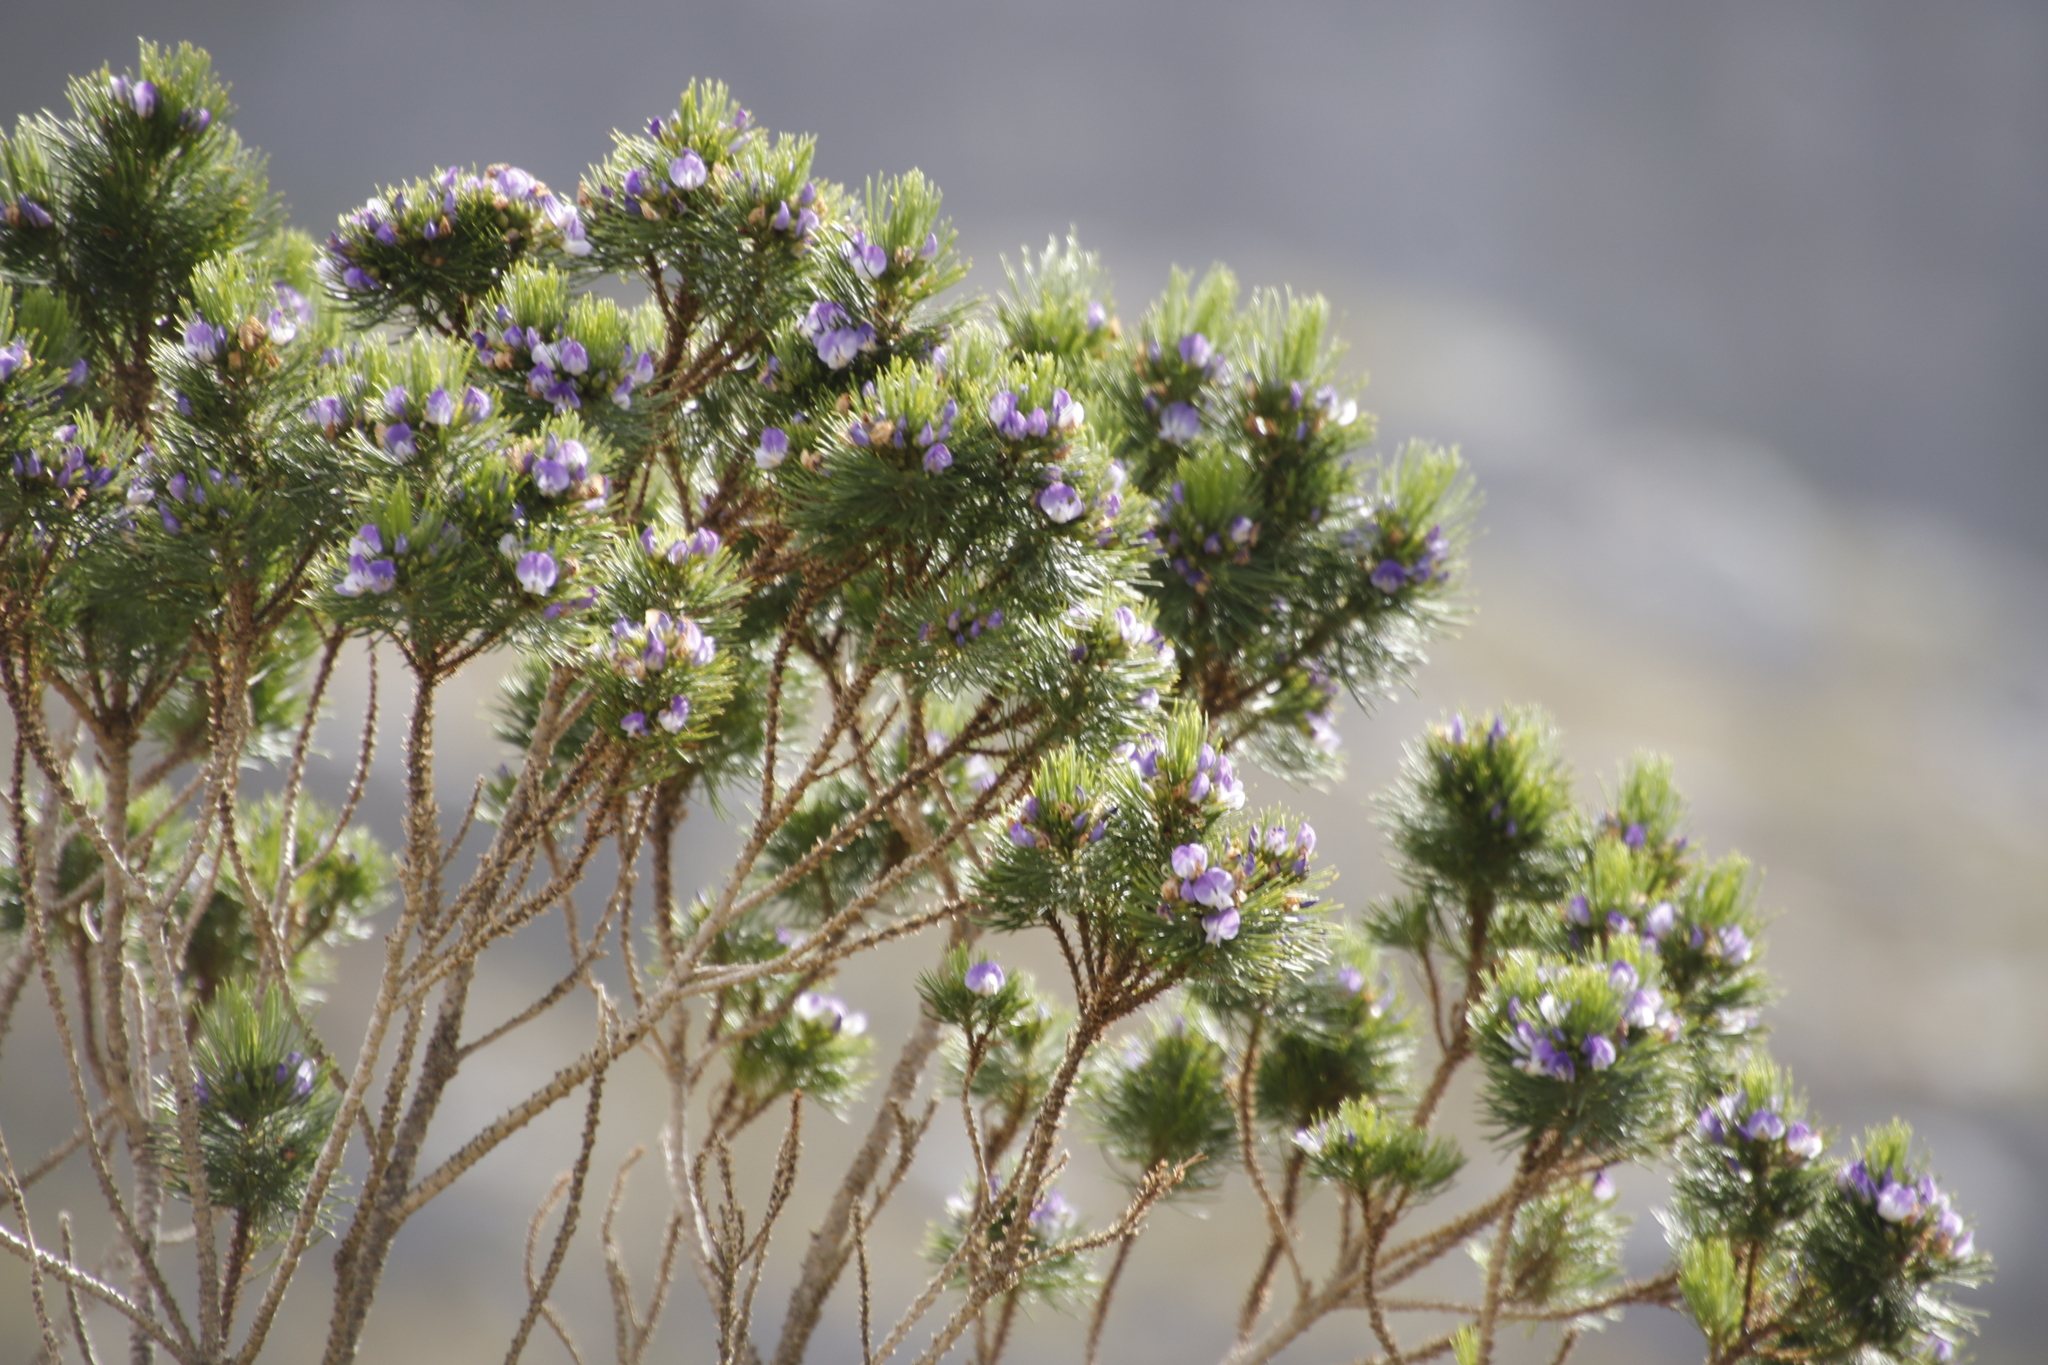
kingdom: Plantae
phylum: Tracheophyta
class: Magnoliopsida
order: Fabales
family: Fabaceae
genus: Psoralea
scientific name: Psoralea pinnata
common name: African scurfpea
